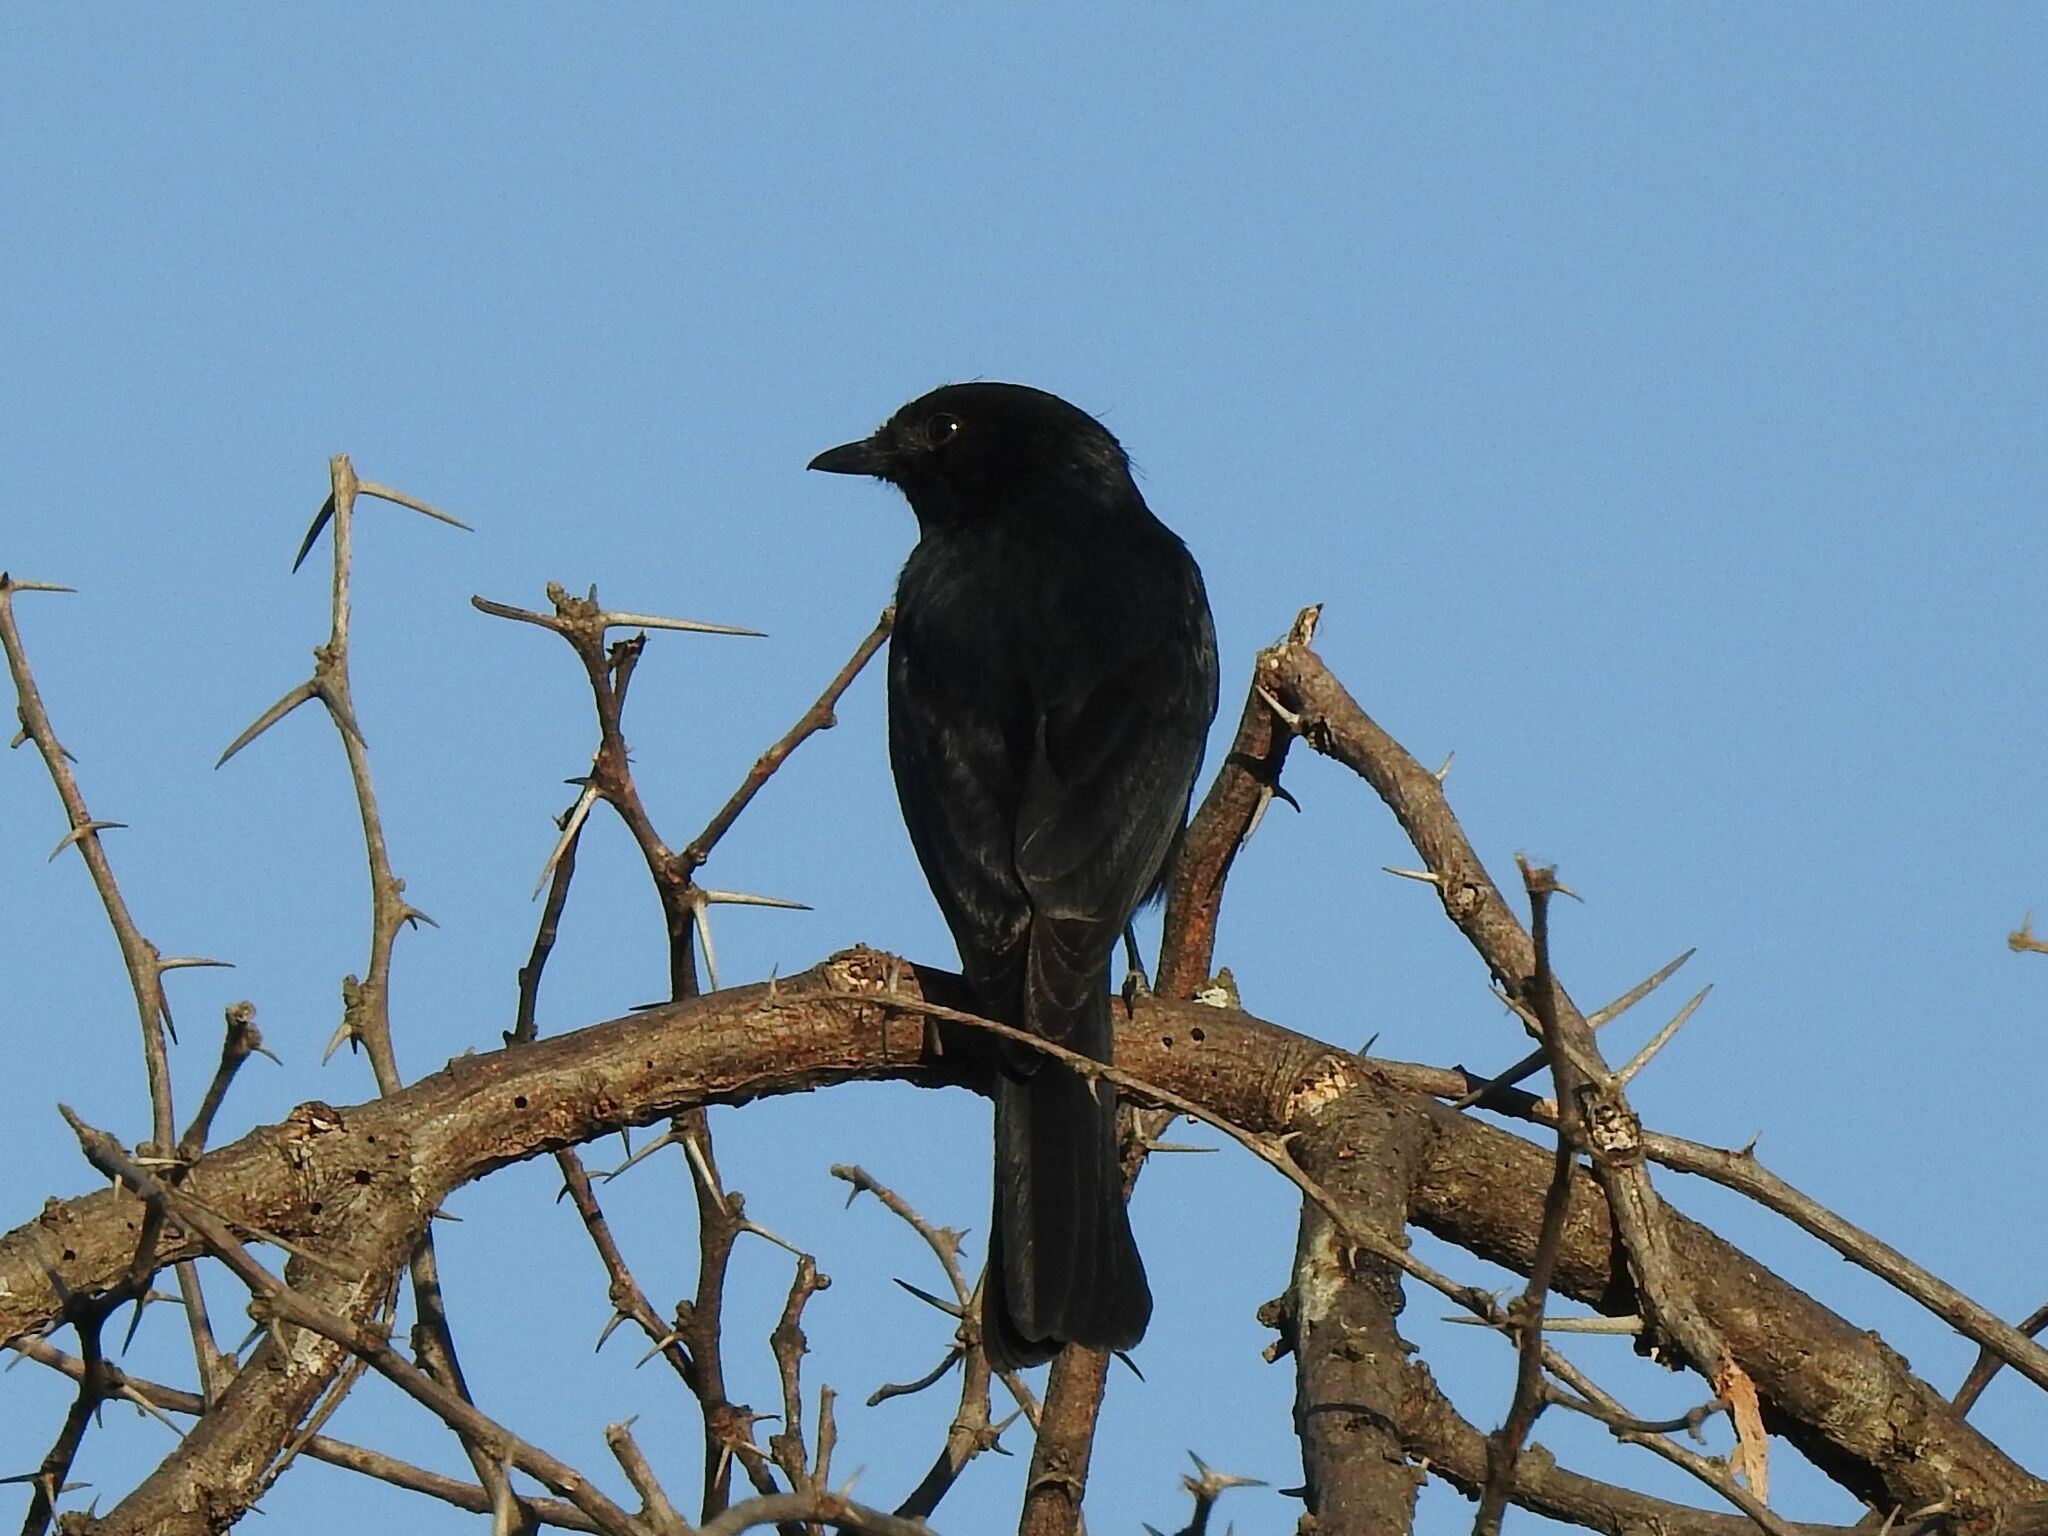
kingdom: Animalia
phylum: Chordata
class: Aves
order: Passeriformes
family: Muscicapidae
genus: Melaenornis
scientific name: Melaenornis pammelaina
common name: Southern black flycatcher
